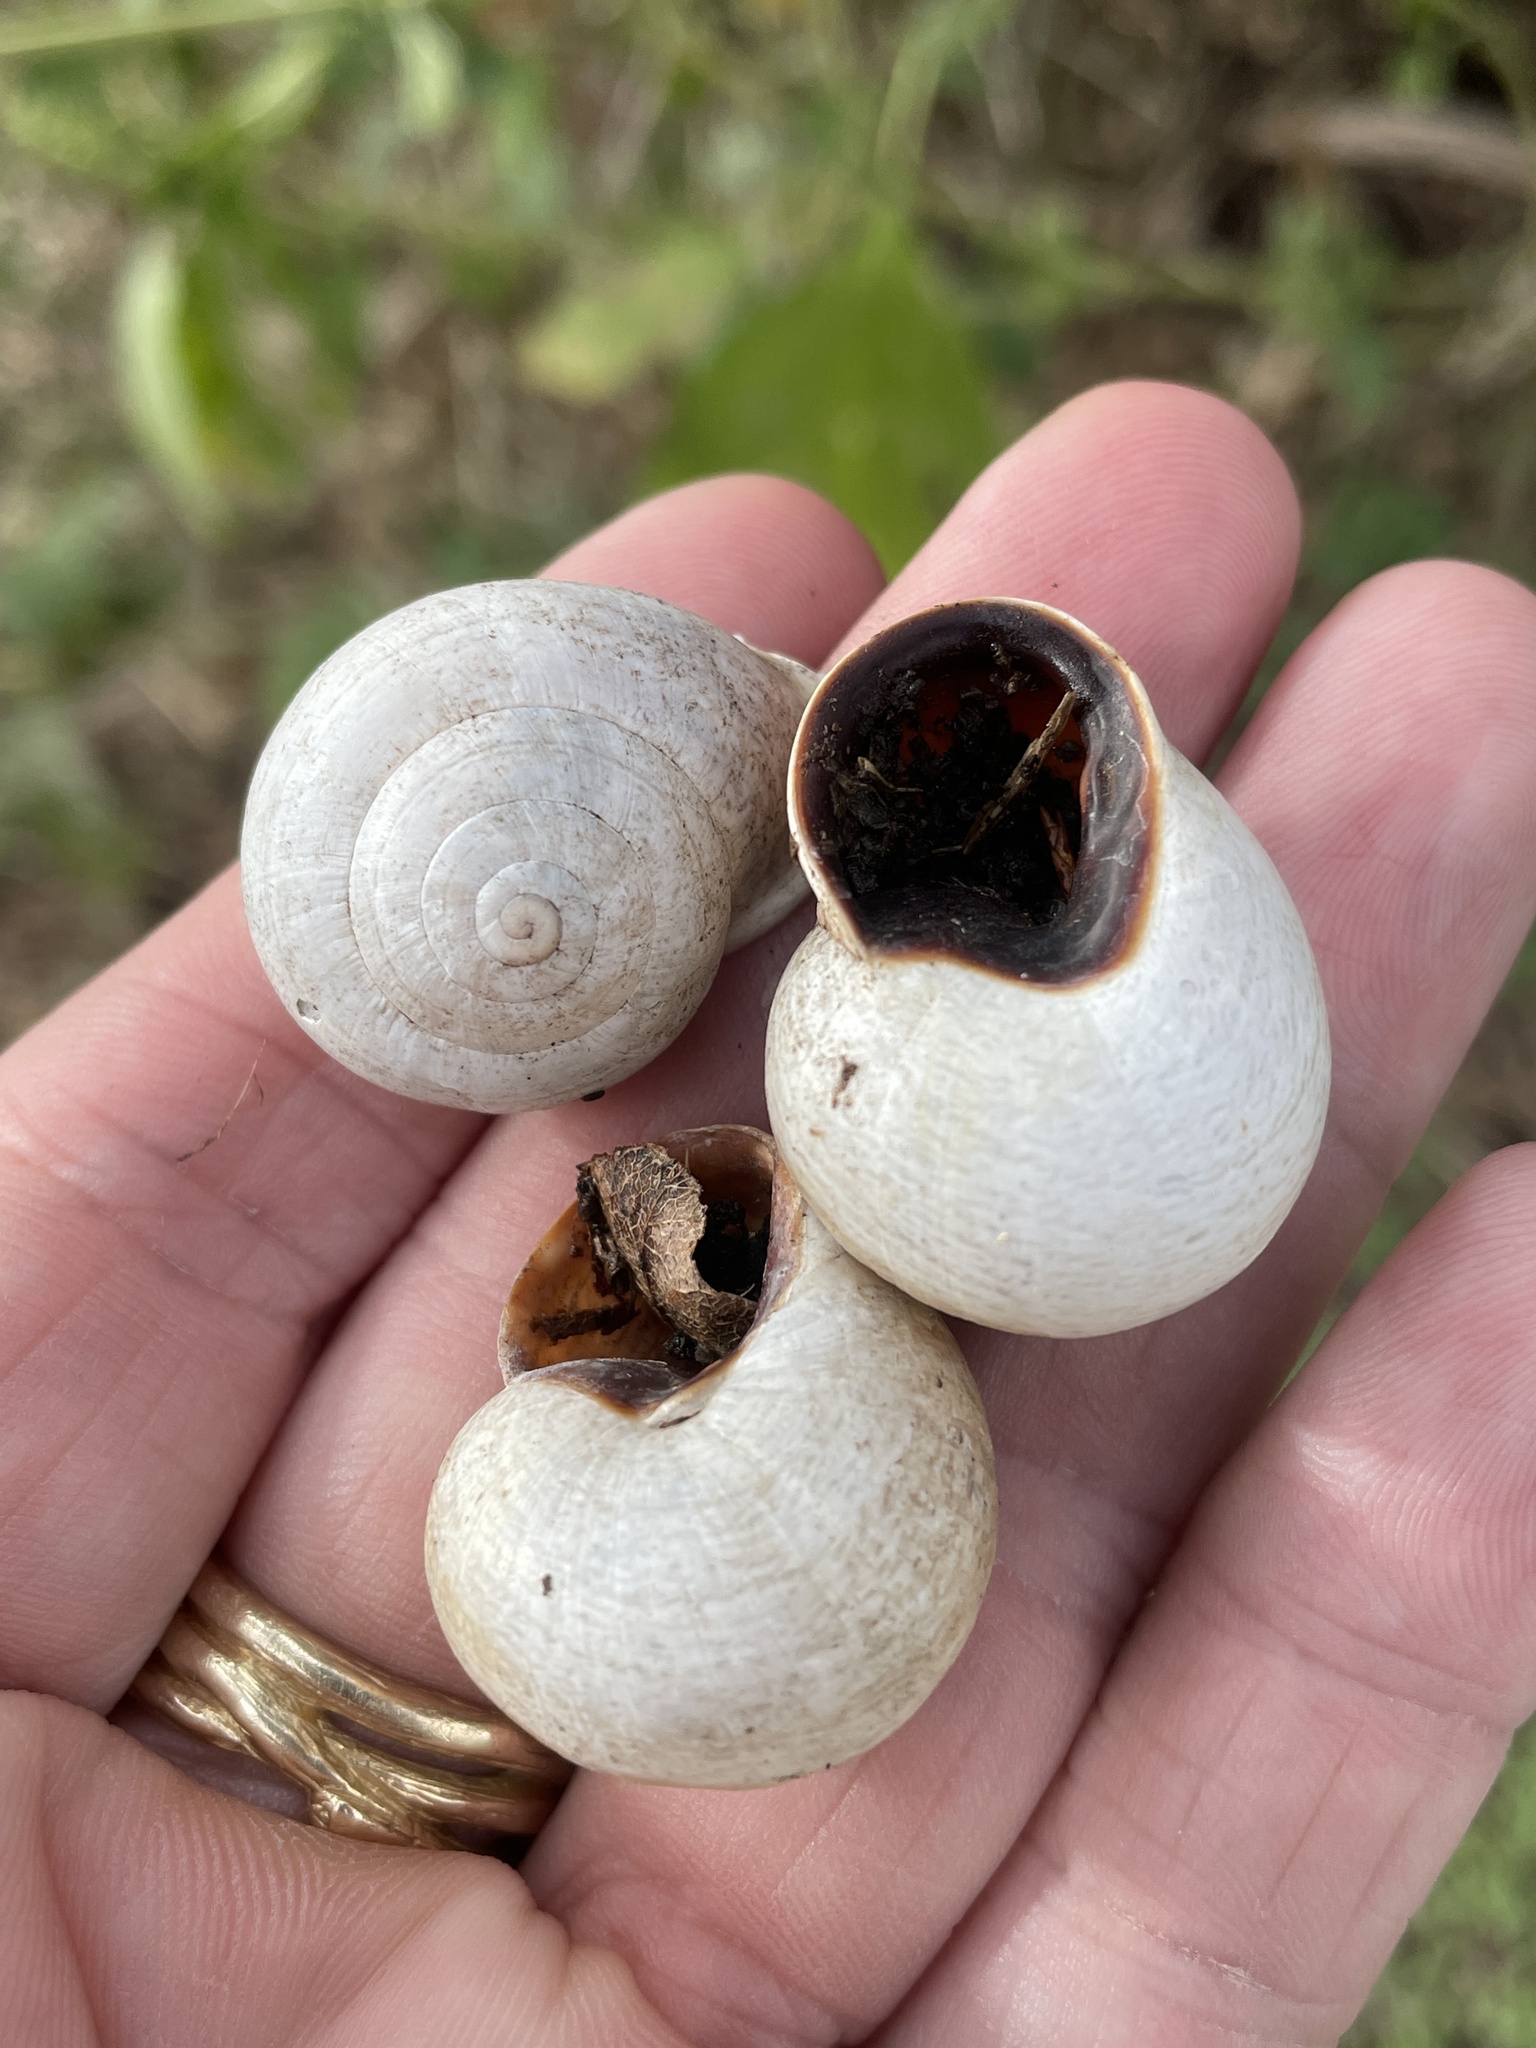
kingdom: Animalia
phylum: Mollusca
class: Gastropoda
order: Stylommatophora
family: Helicidae
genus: Otala
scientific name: Otala lactea
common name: Milk snail
